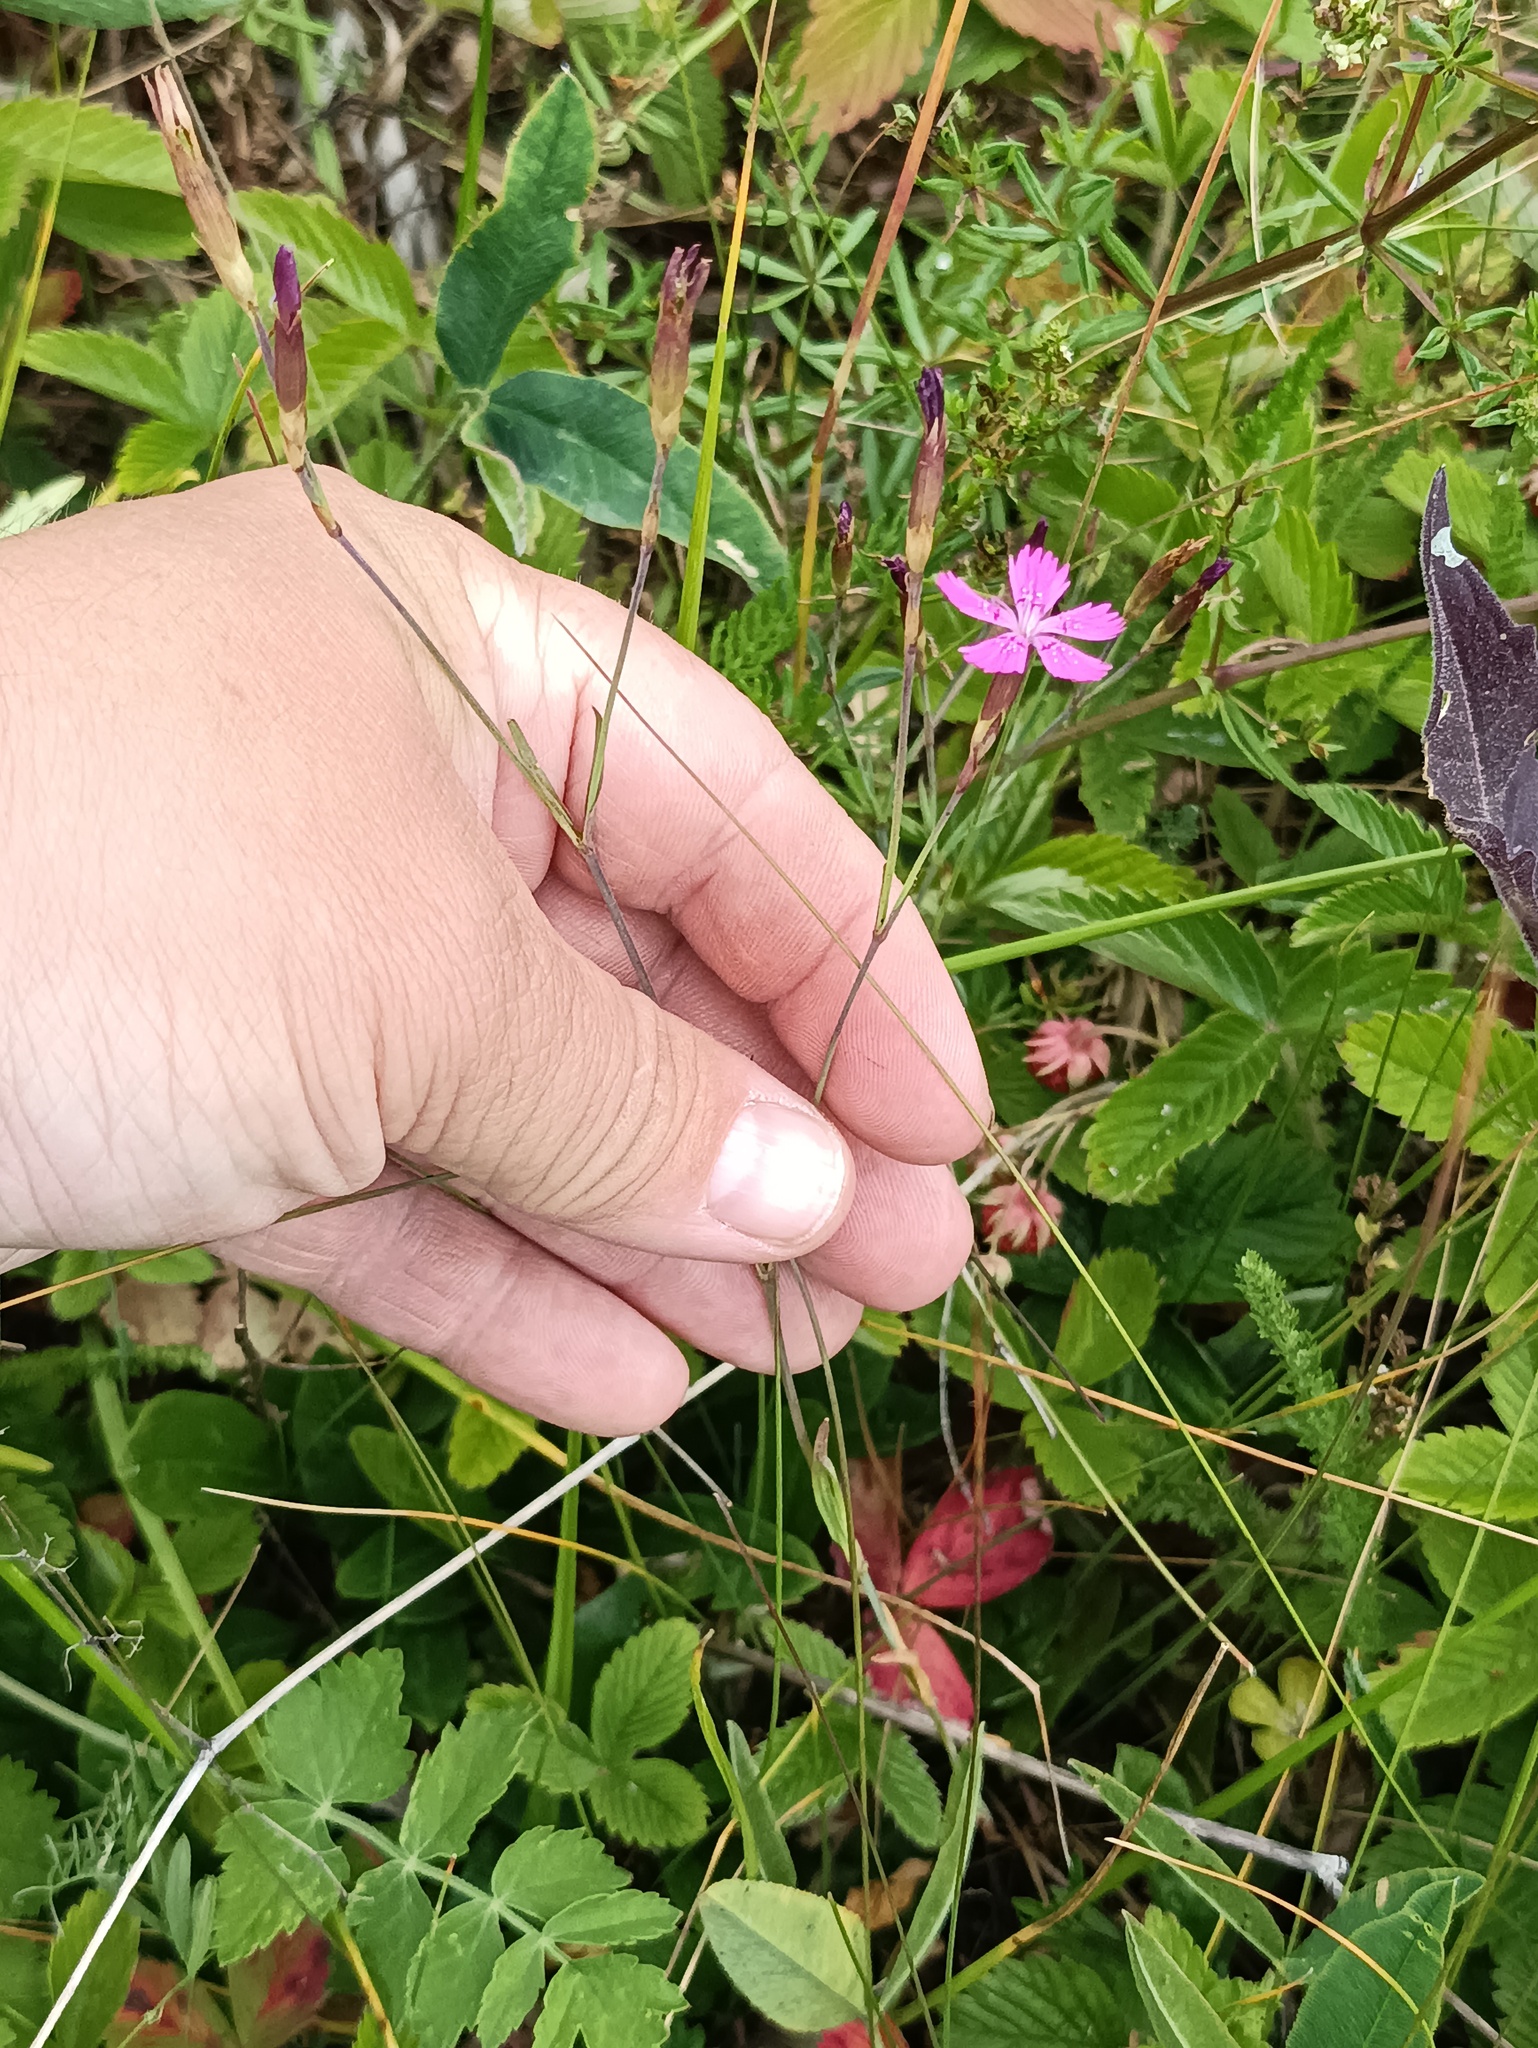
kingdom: Plantae
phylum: Tracheophyta
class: Magnoliopsida
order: Caryophyllales
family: Caryophyllaceae
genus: Dianthus
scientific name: Dianthus deltoides
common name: Maiden pink
